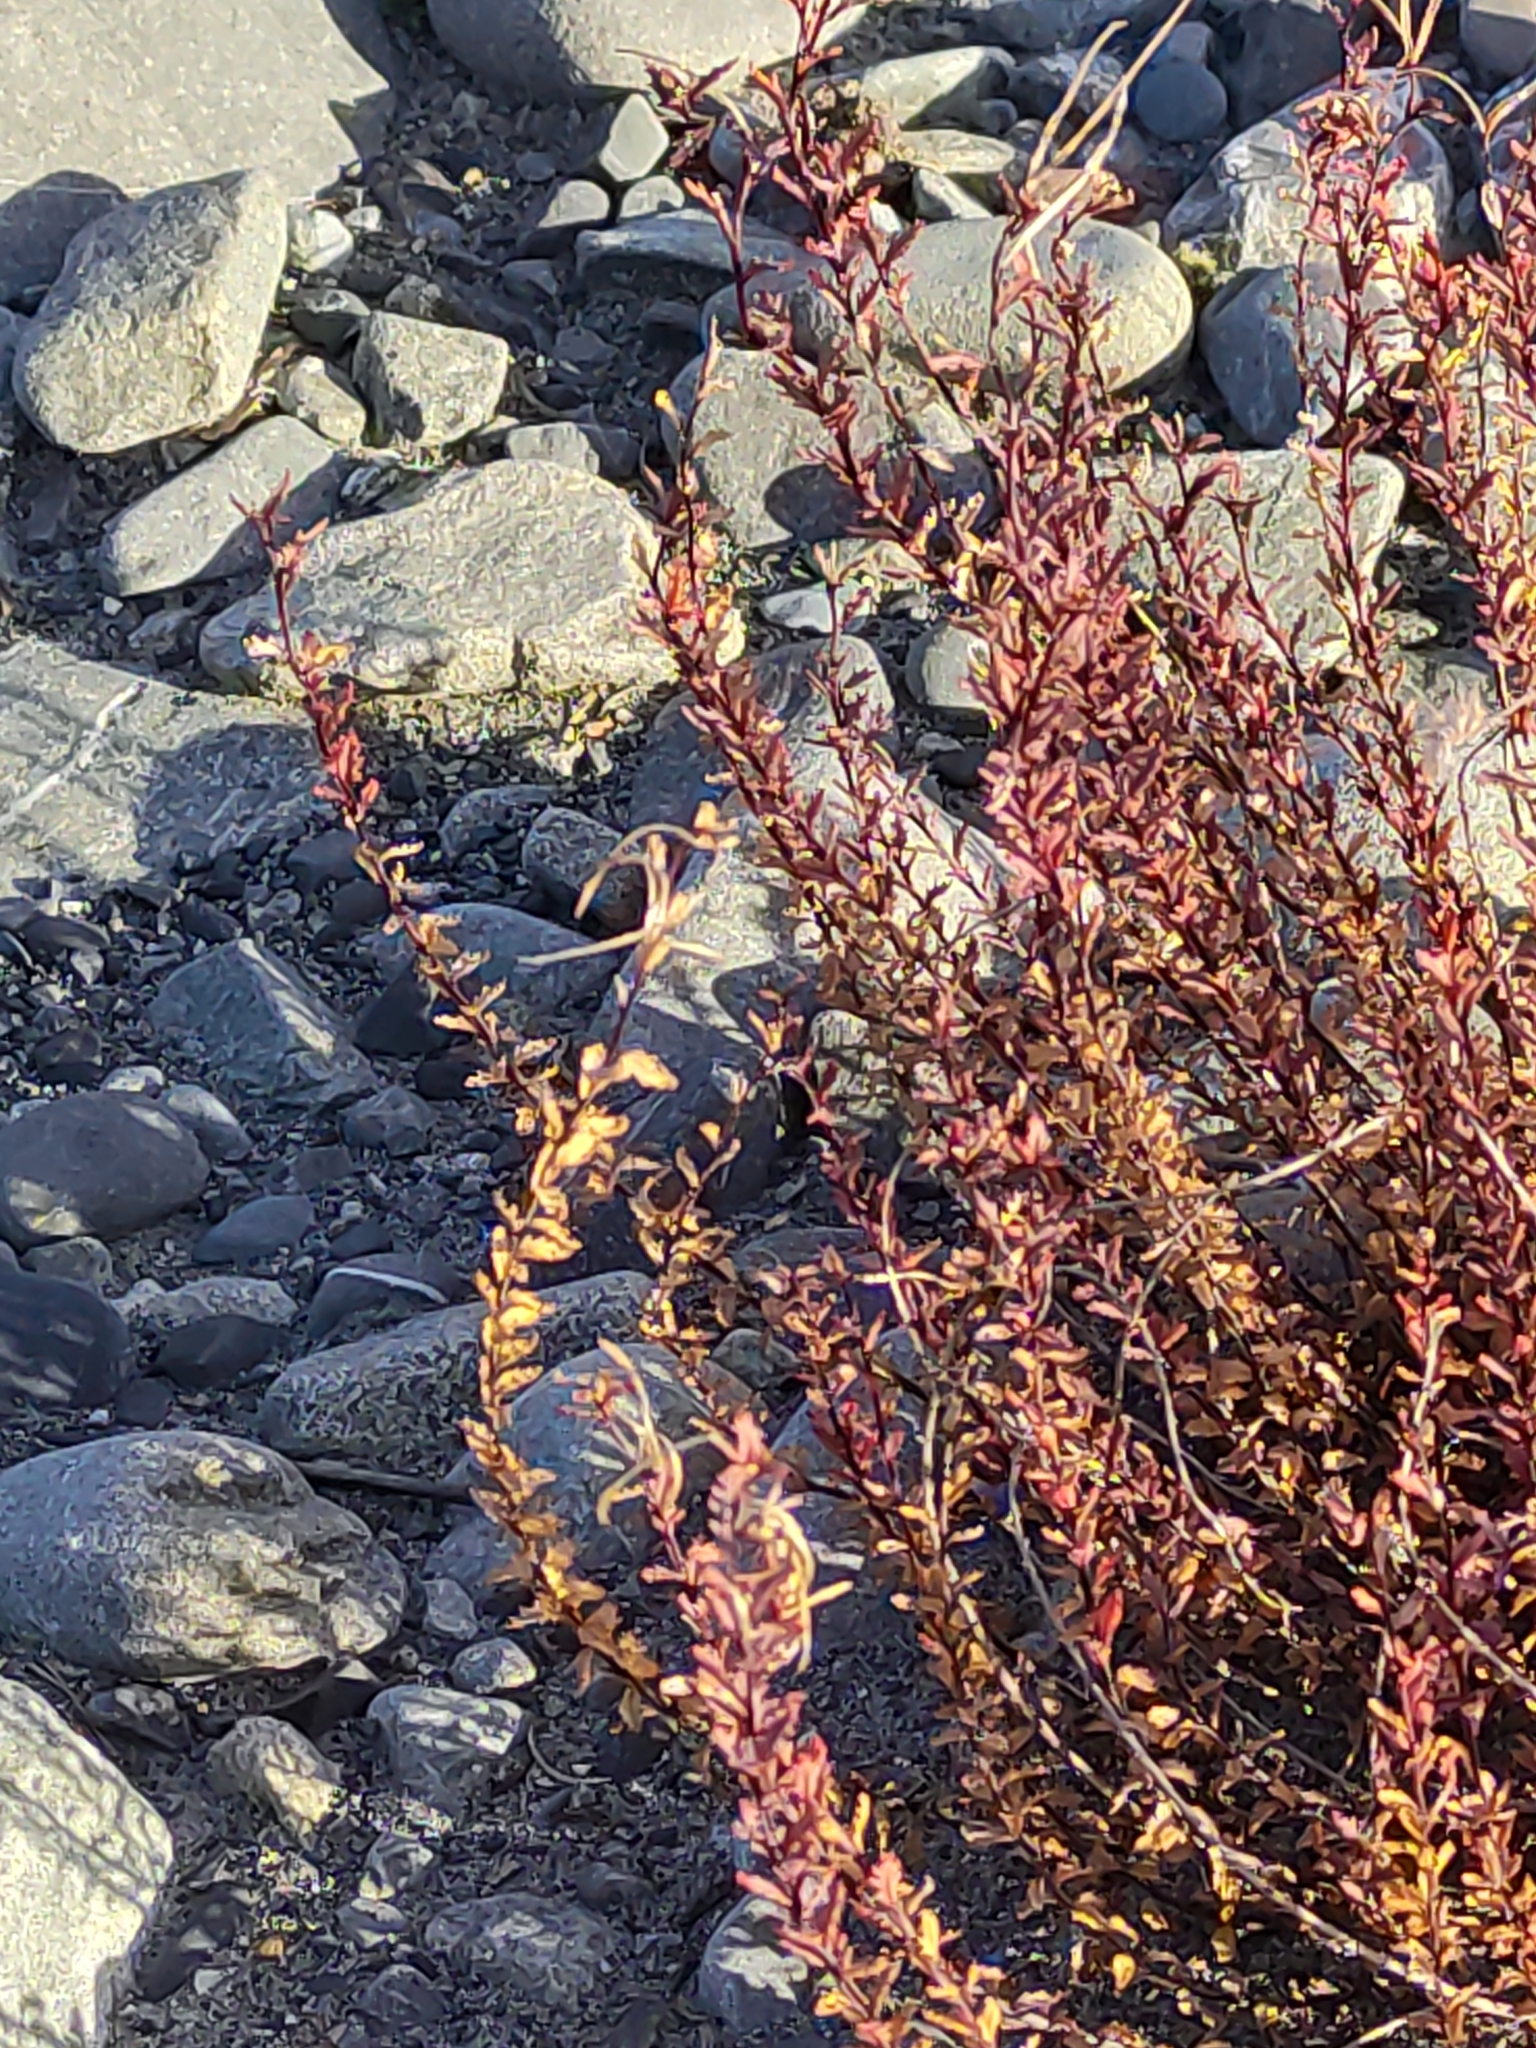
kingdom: Plantae
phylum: Tracheophyta
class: Magnoliopsida
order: Myrtales
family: Onagraceae
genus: Epilobium
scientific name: Epilobium melanocaulon
